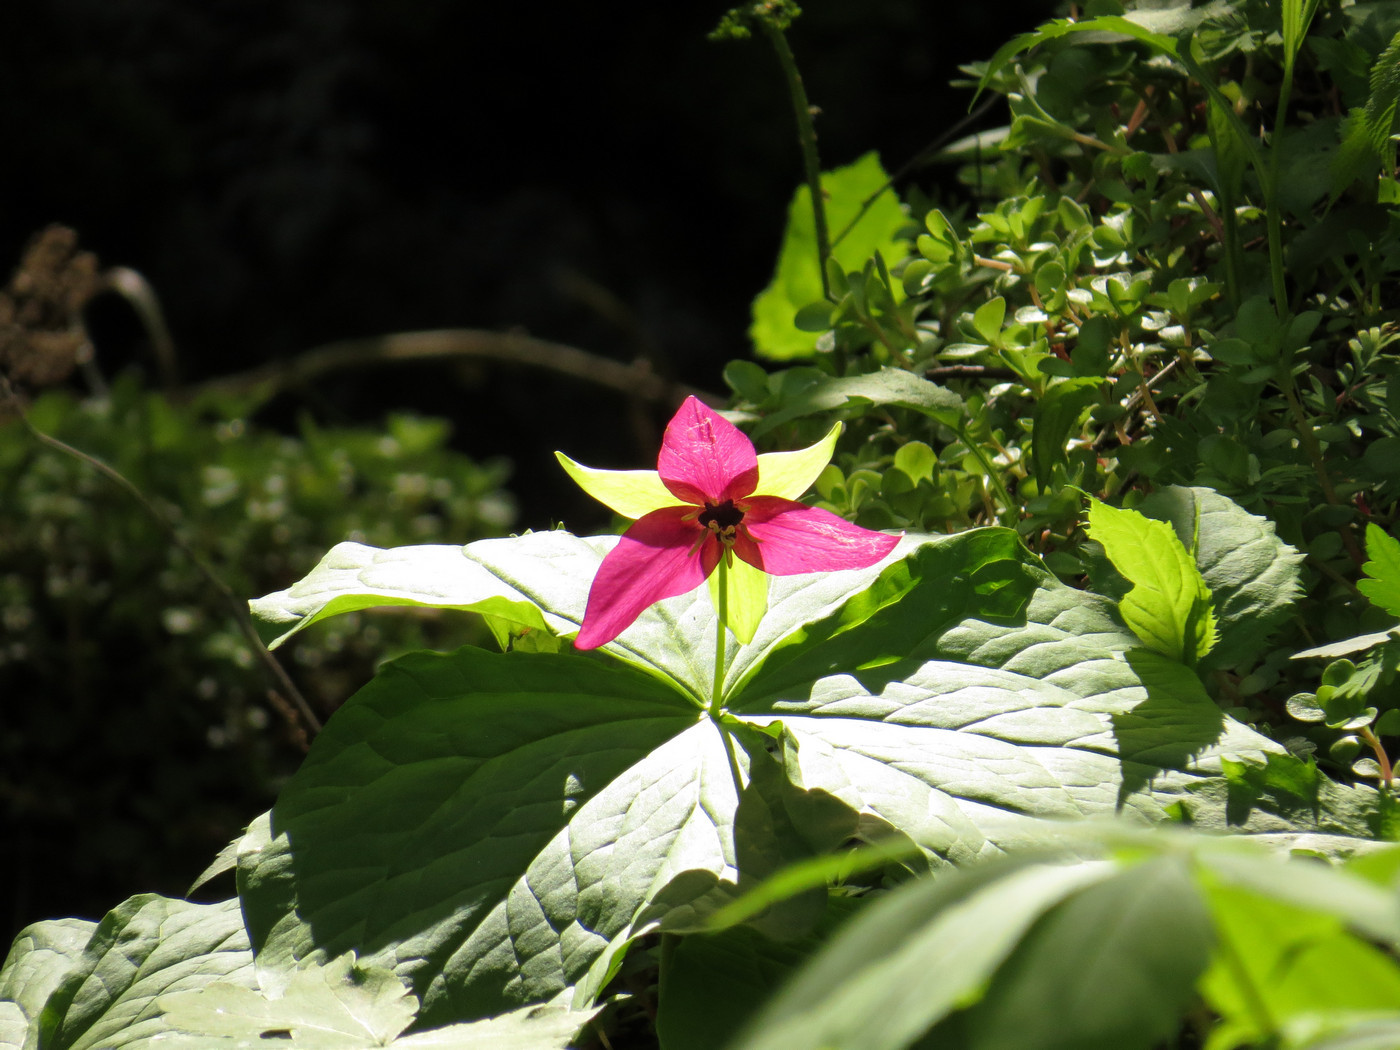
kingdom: Plantae
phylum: Tracheophyta
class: Liliopsida
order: Liliales
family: Melanthiaceae
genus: Trillium
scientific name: Trillium erectum
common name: Purple trillium
